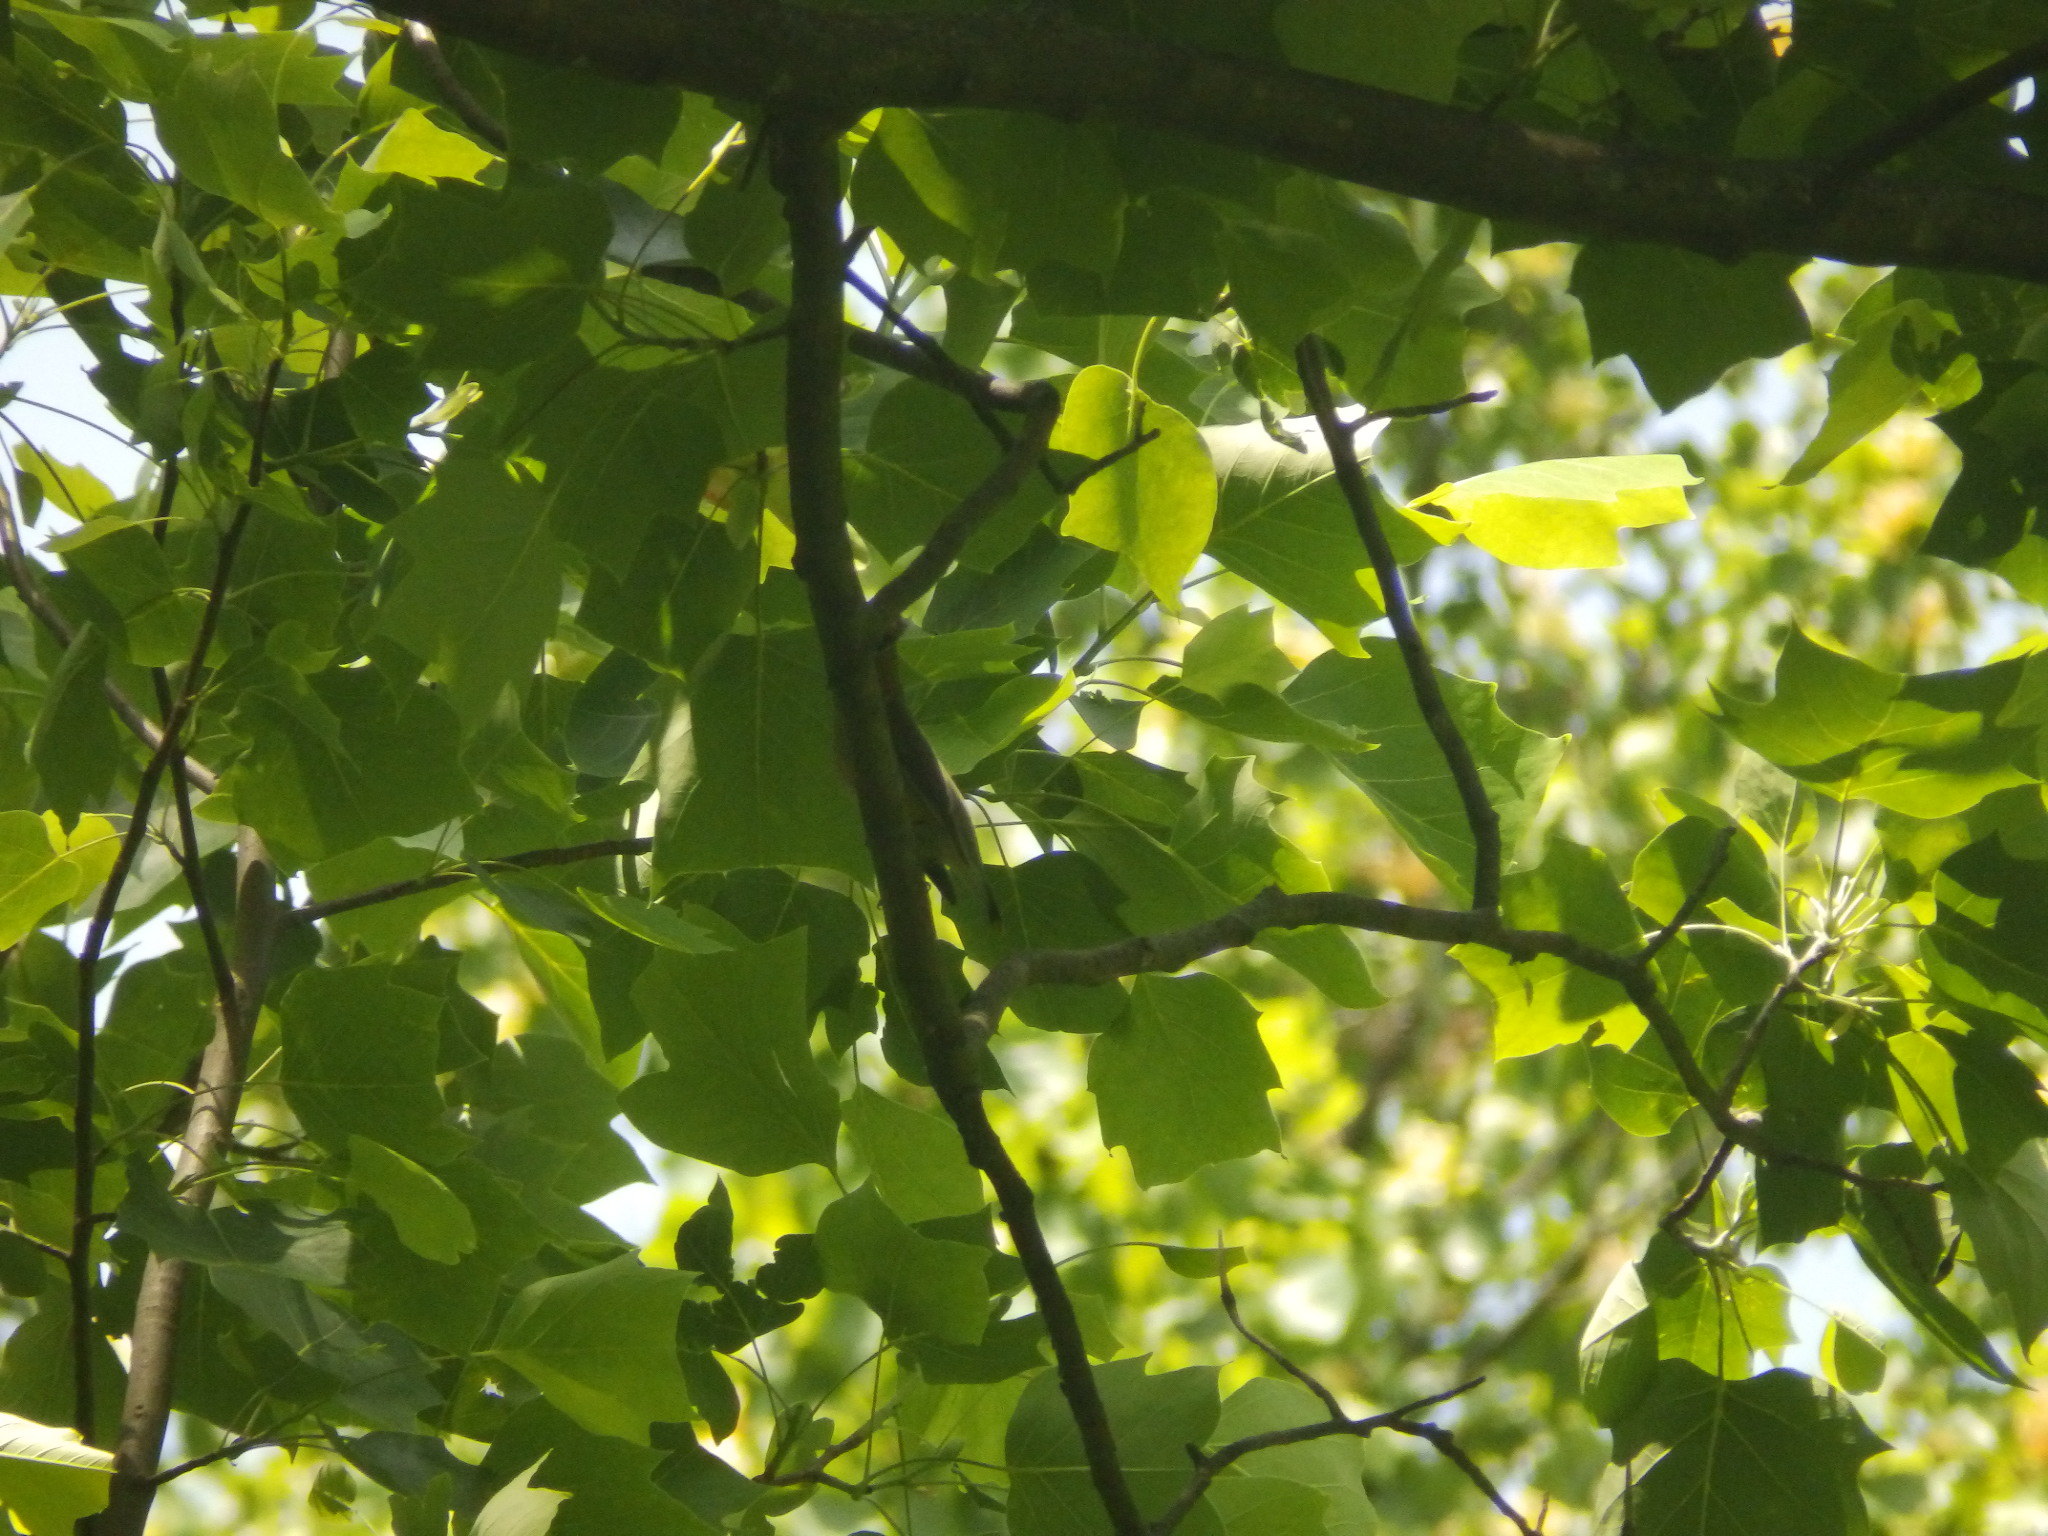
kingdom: Animalia
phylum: Chordata
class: Aves
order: Passeriformes
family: Bombycillidae
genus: Bombycilla
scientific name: Bombycilla cedrorum
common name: Cedar waxwing
